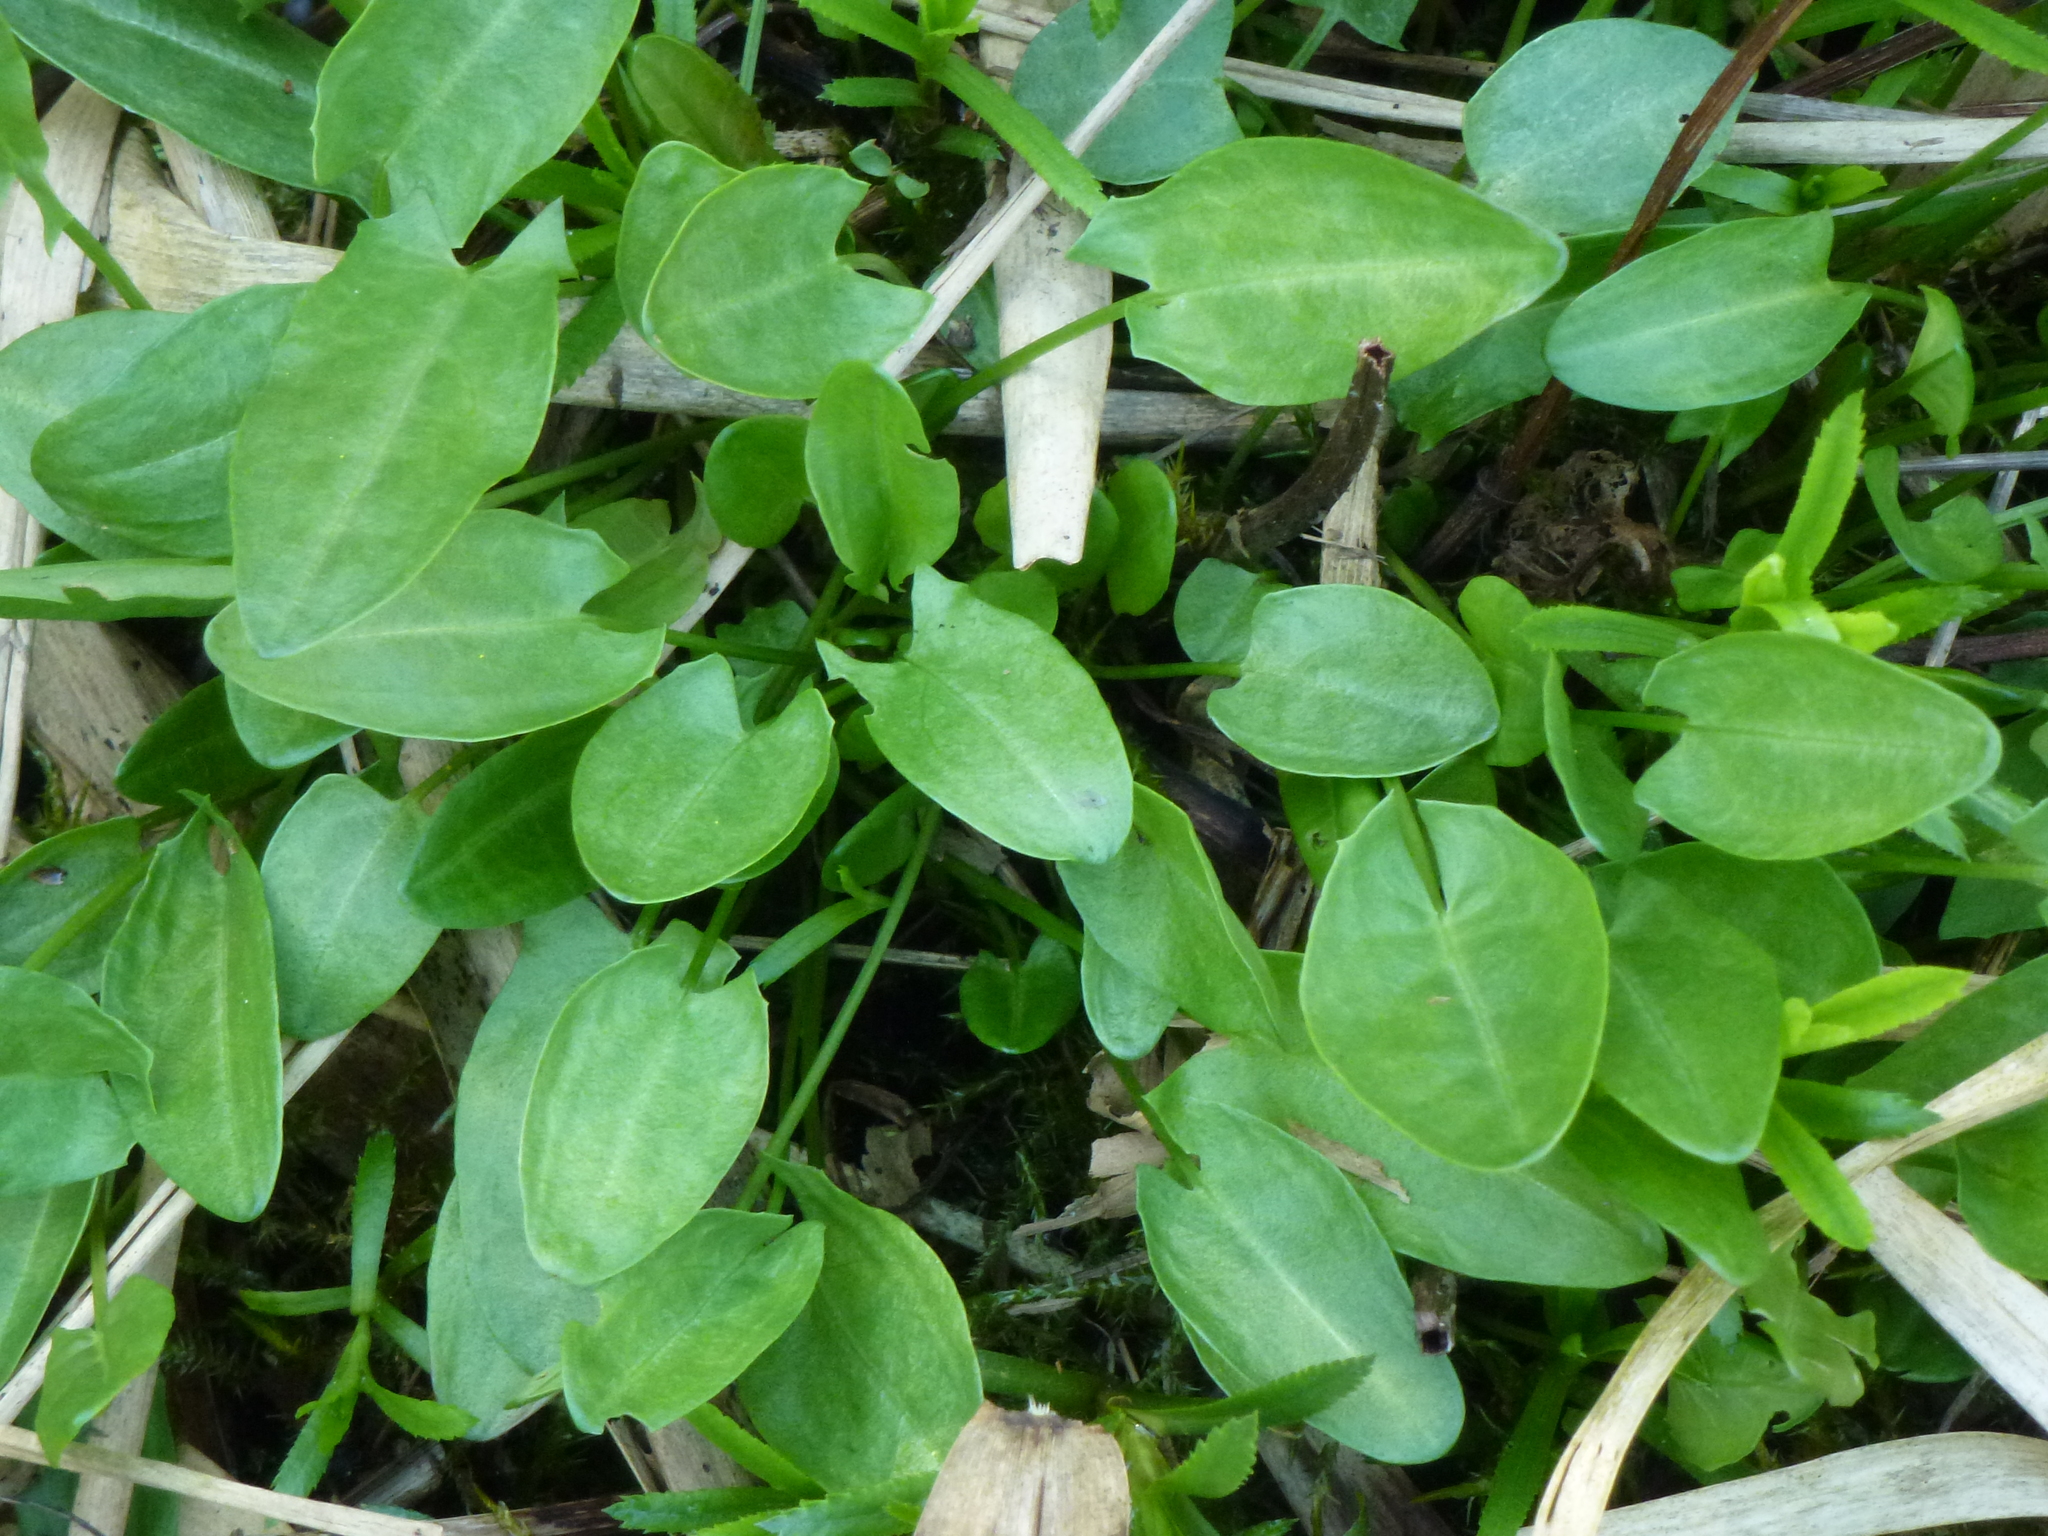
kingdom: Plantae
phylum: Tracheophyta
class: Magnoliopsida
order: Caryophyllales
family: Polygonaceae
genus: Rumex
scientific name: Rumex acetosa
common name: Garden sorrel
